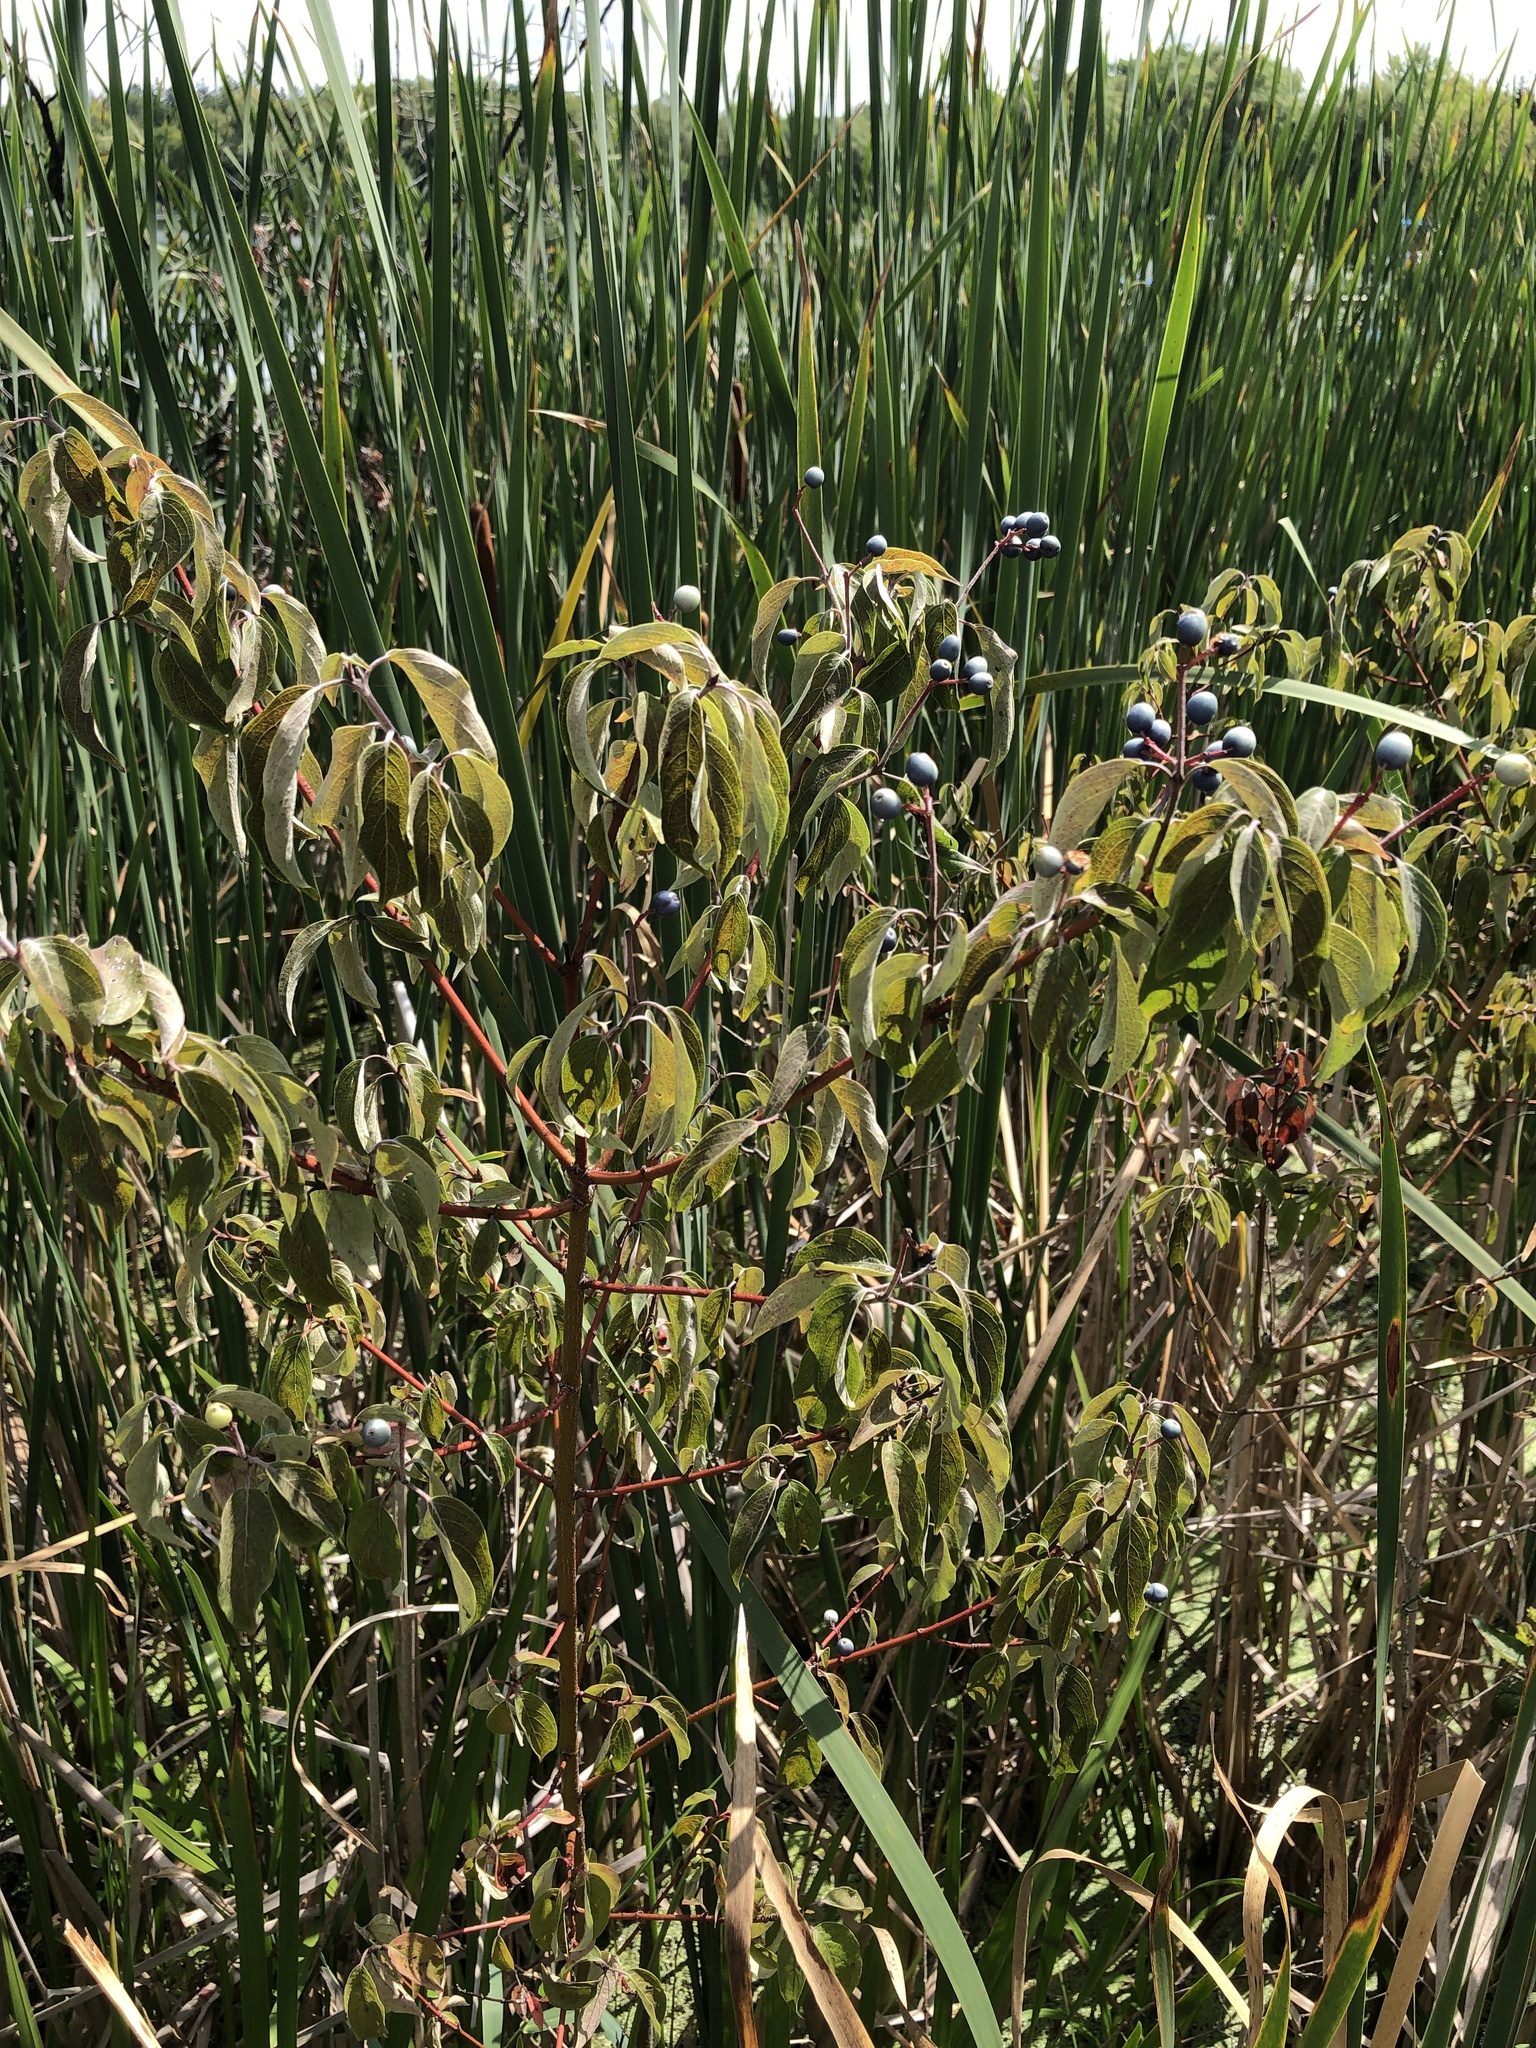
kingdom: Plantae
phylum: Tracheophyta
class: Magnoliopsida
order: Cornales
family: Cornaceae
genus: Cornus
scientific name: Cornus obliqua
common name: Pale dogwood
